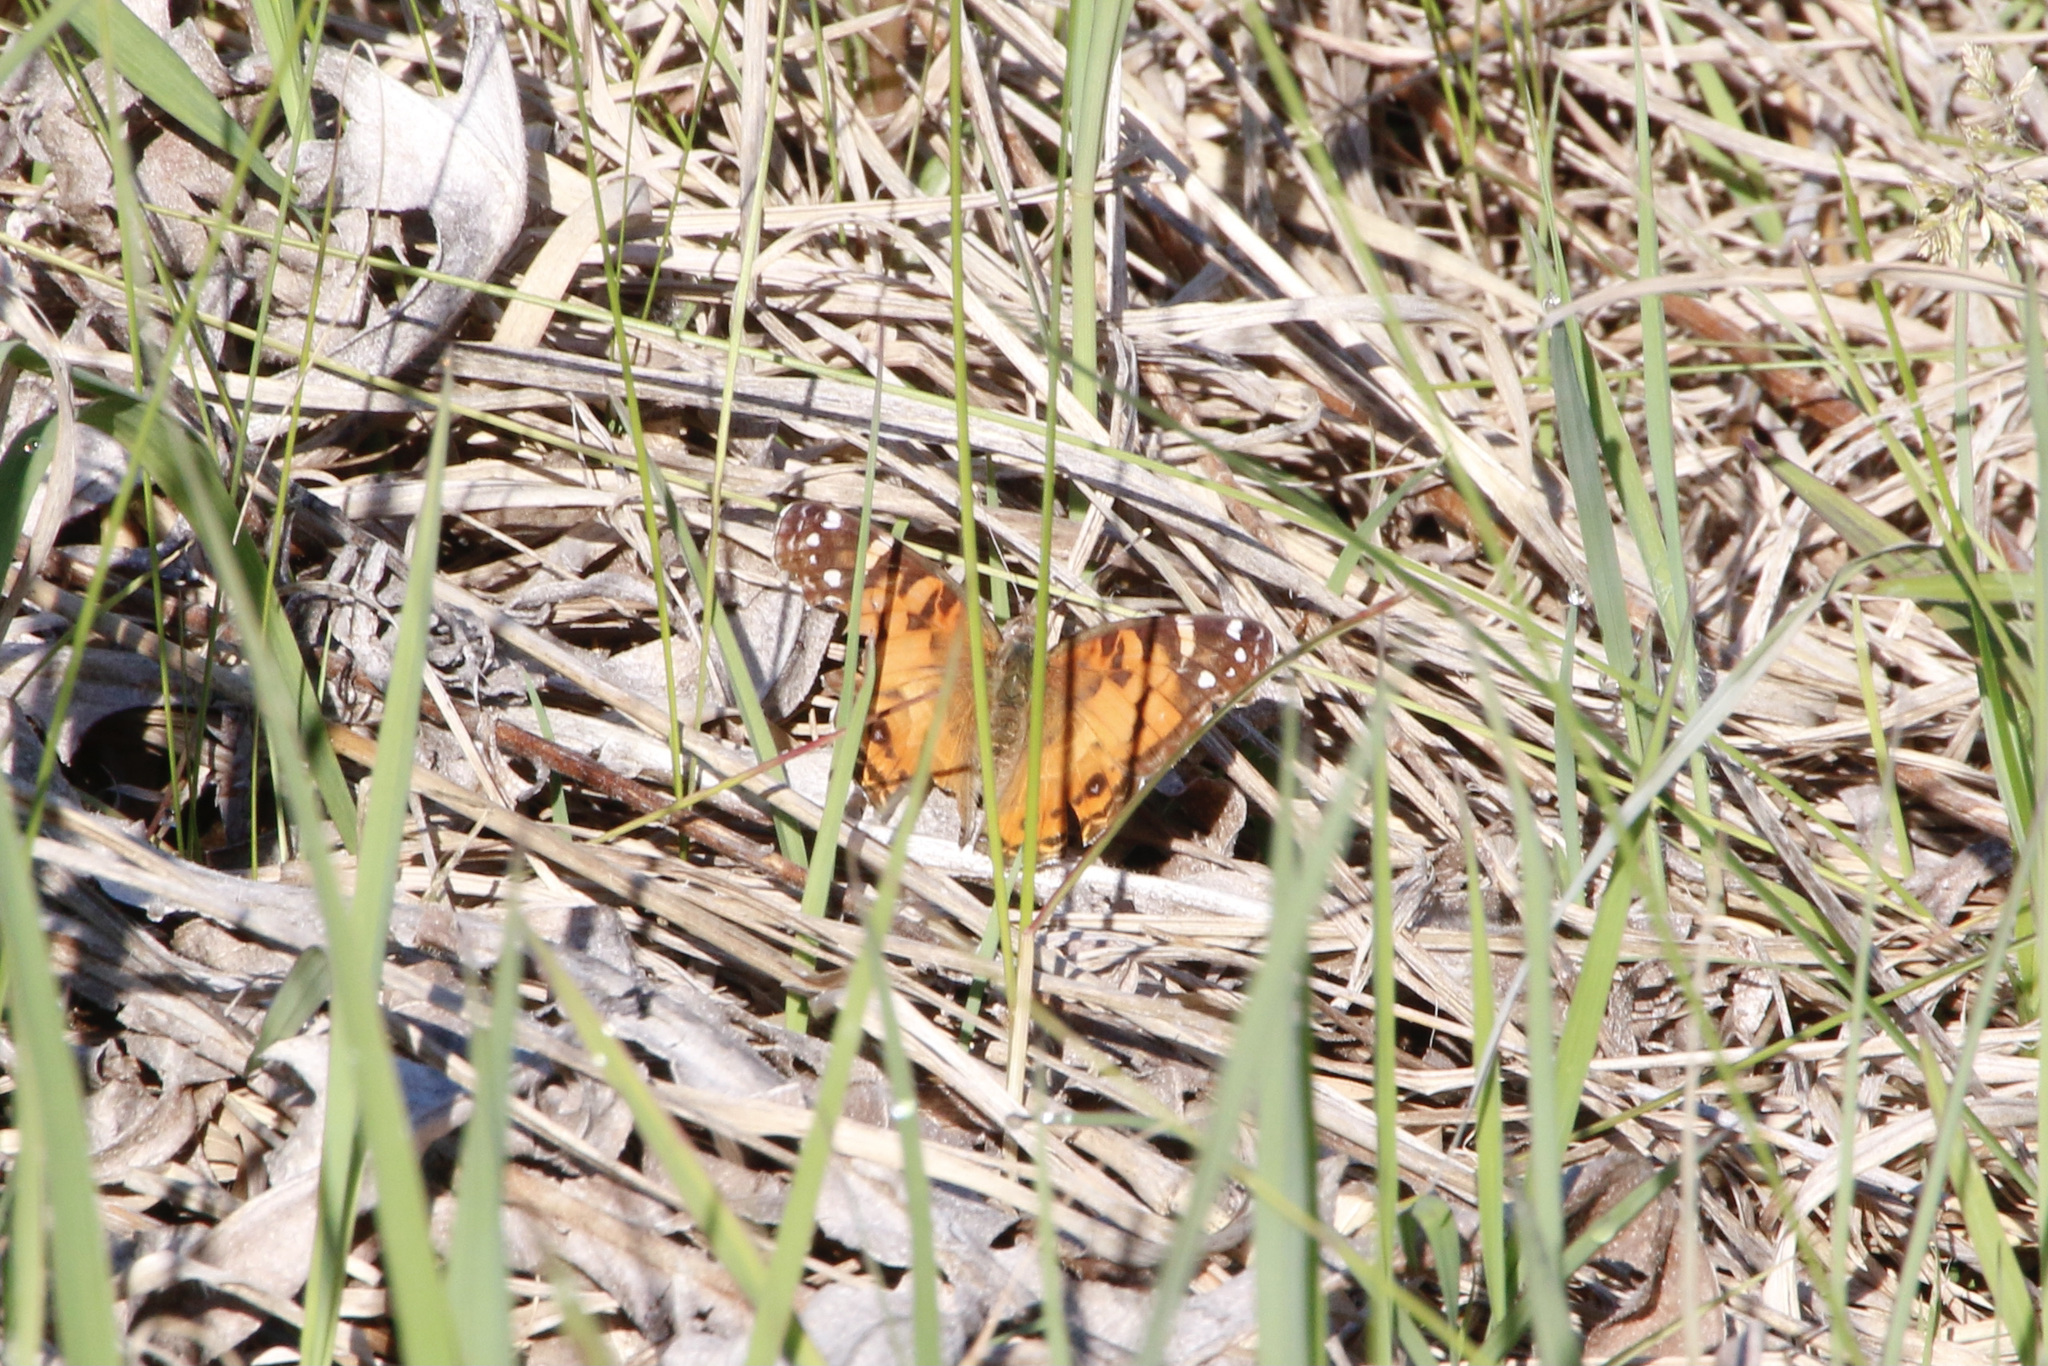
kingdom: Animalia
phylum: Arthropoda
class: Insecta
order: Lepidoptera
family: Nymphalidae
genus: Vanessa
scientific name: Vanessa virginiensis
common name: American lady
